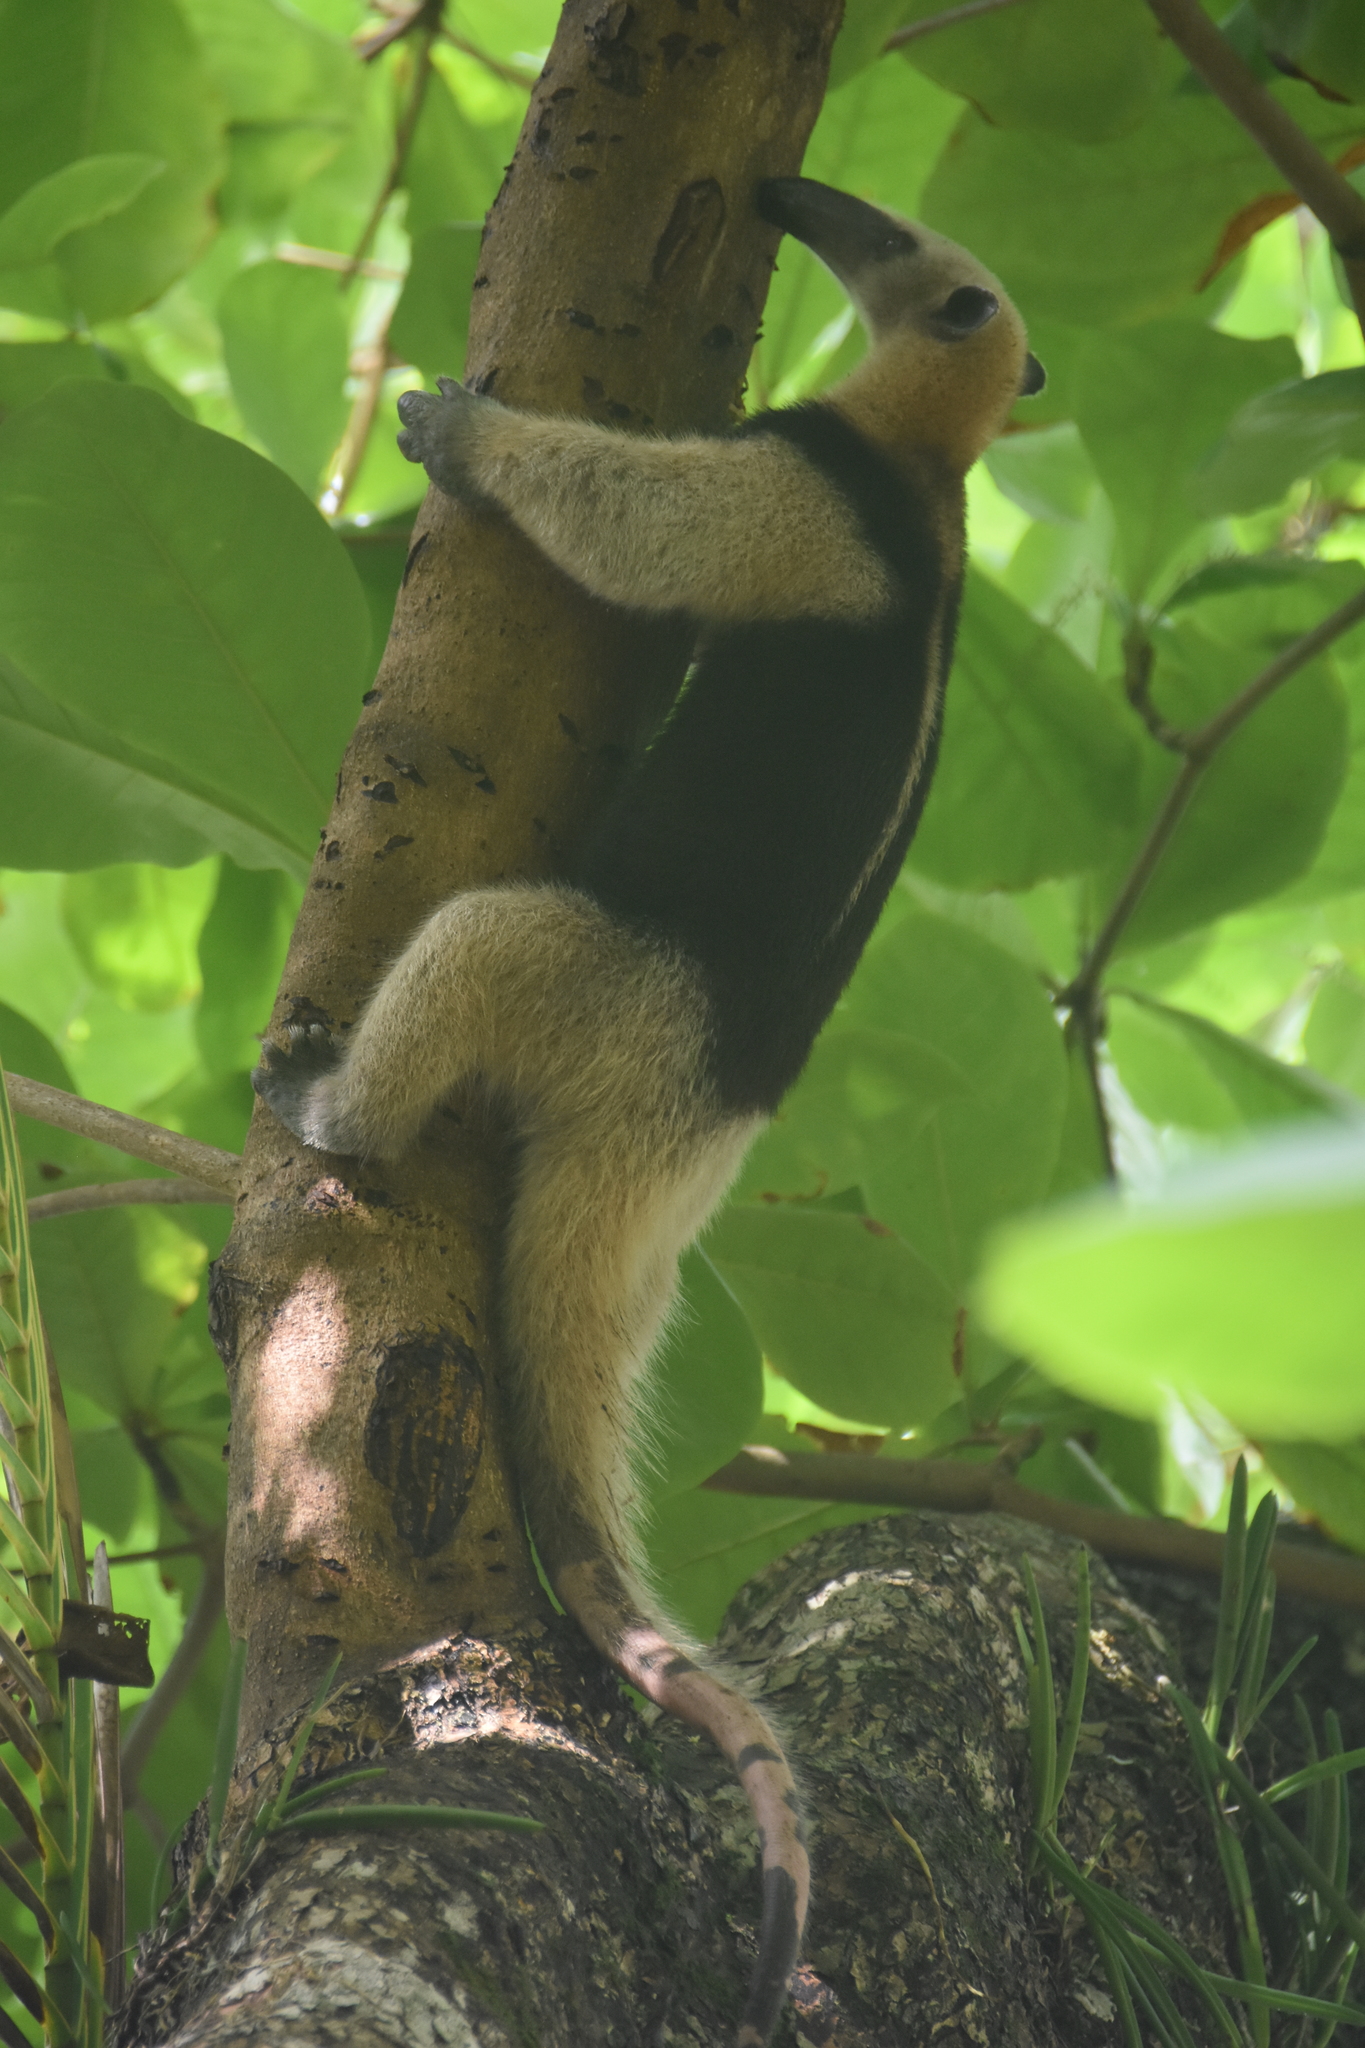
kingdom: Animalia
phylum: Chordata
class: Mammalia
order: Pilosa
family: Myrmecophagidae
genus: Tamandua
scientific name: Tamandua mexicana
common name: Northern tamandua
